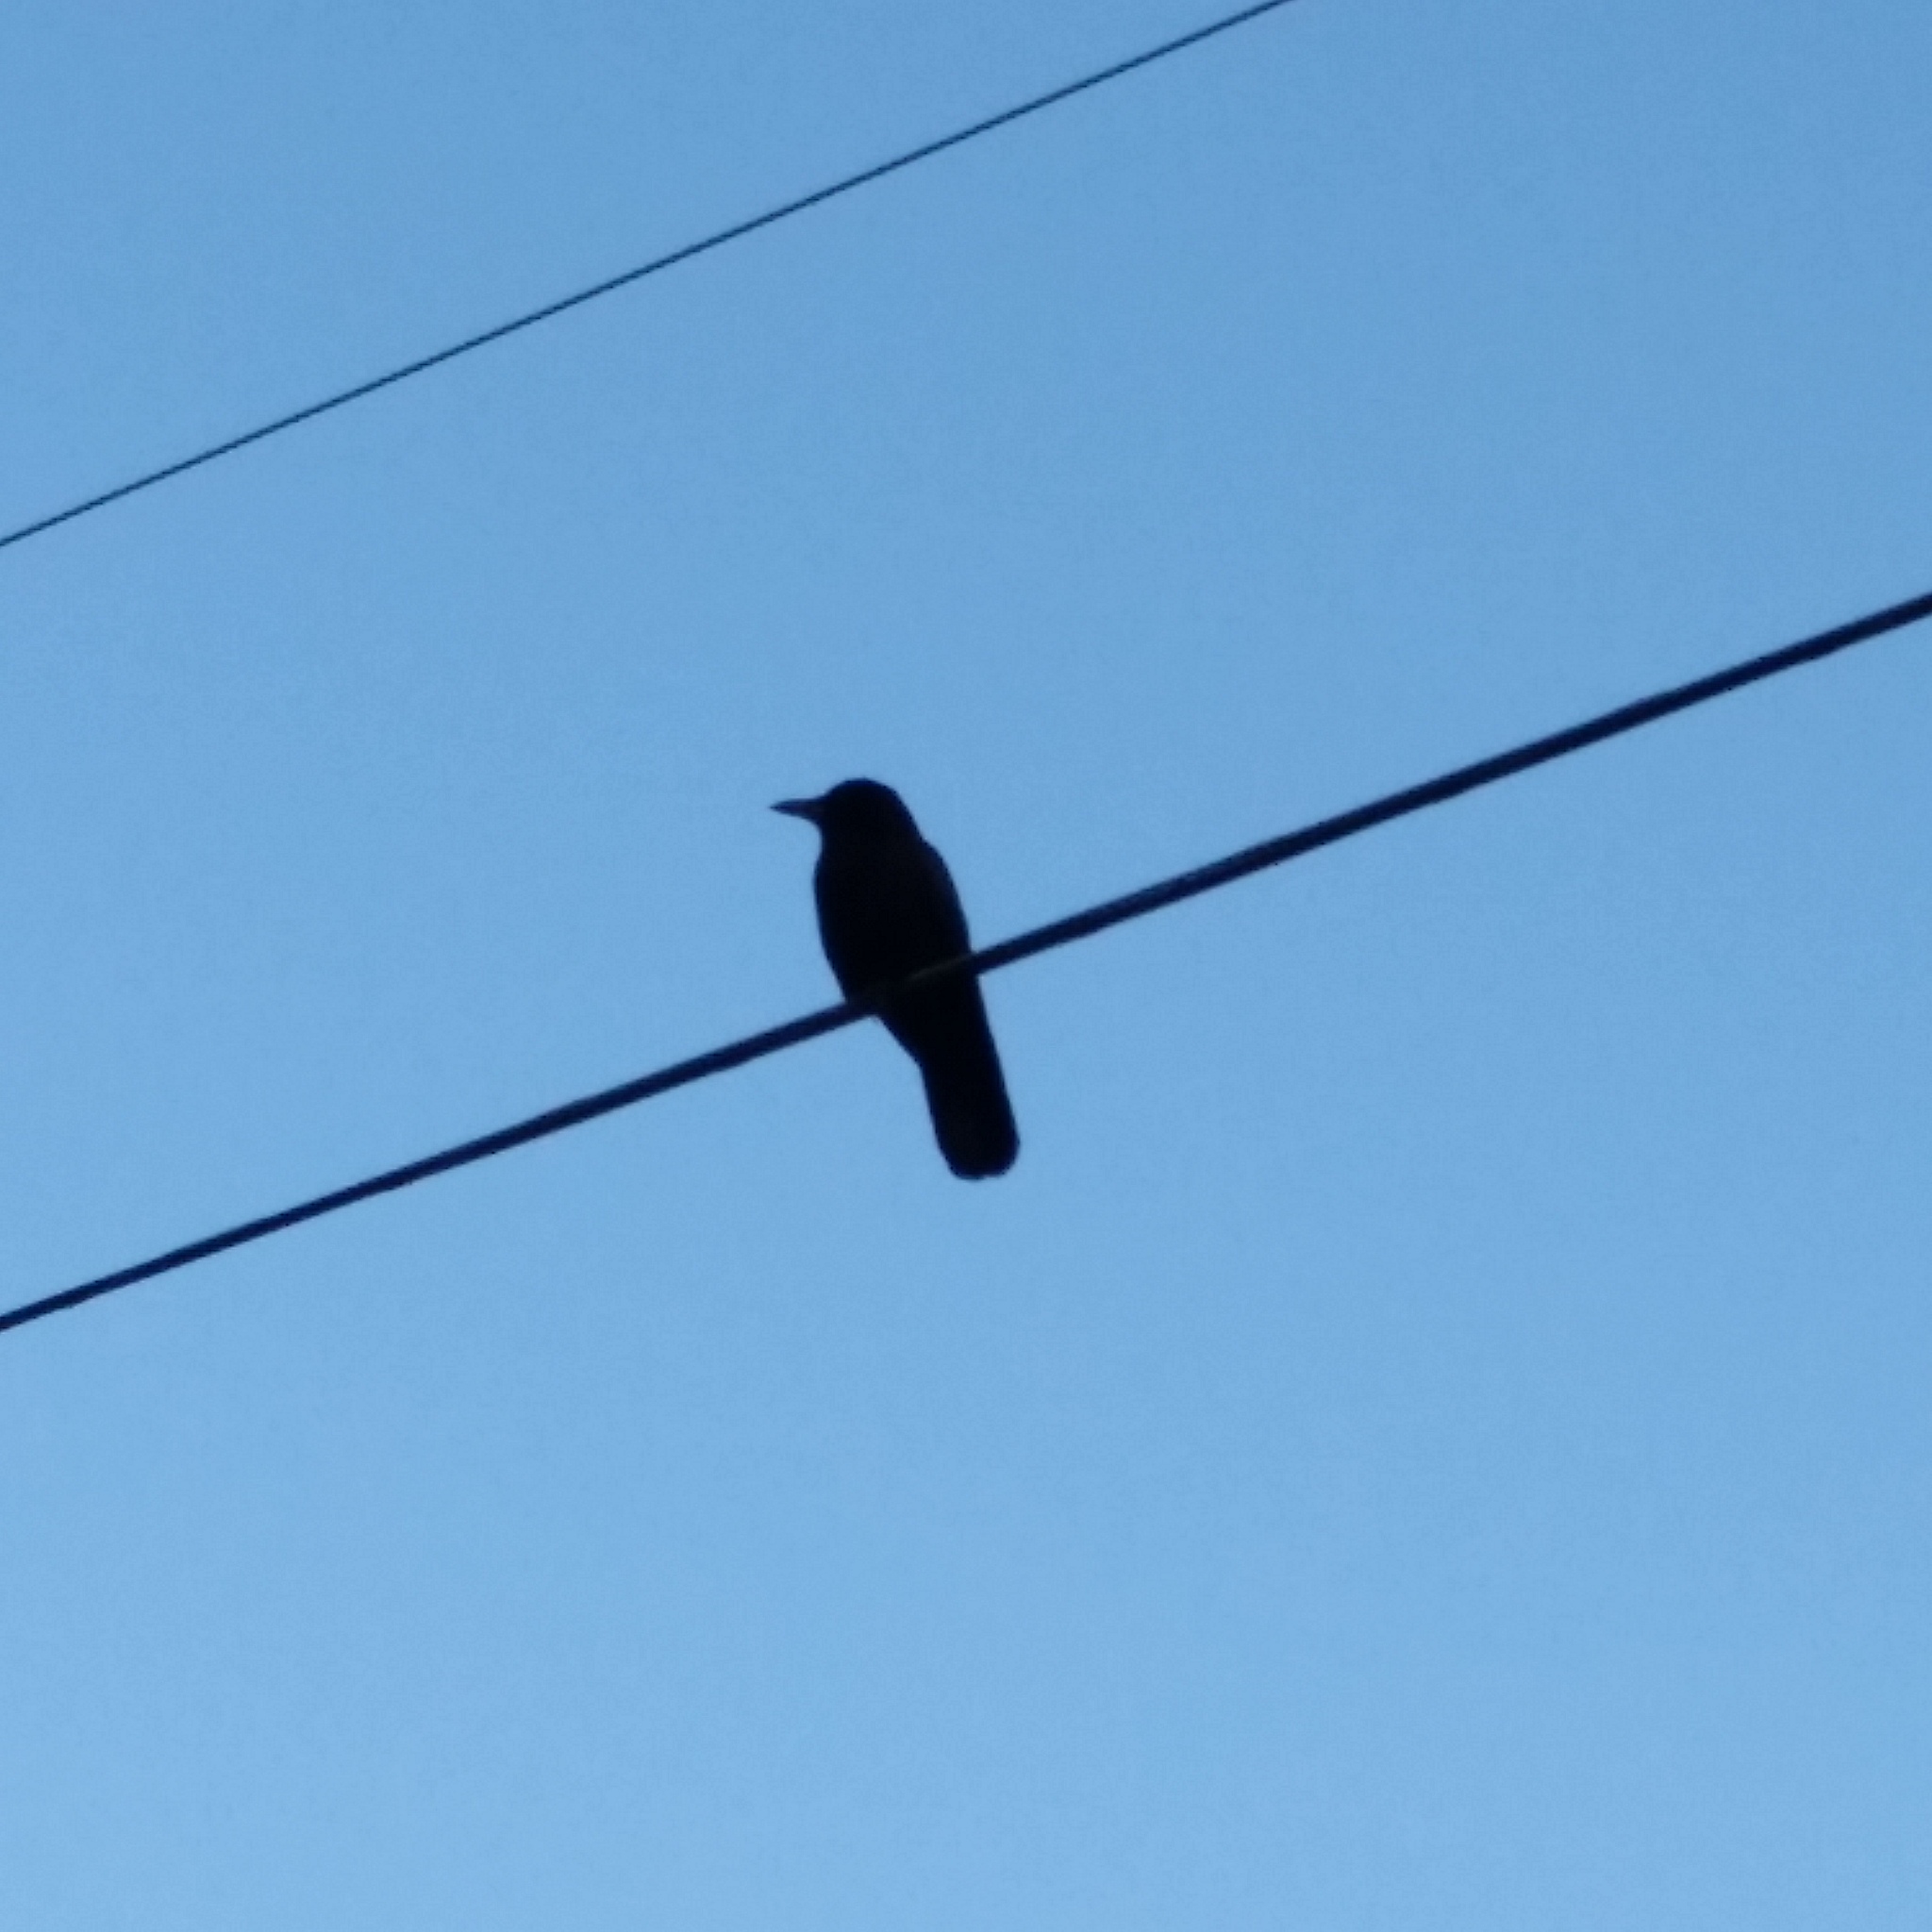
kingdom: Animalia
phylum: Chordata
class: Aves
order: Passeriformes
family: Corvidae
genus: Corvus
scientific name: Corvus brachyrhynchos
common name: American crow
